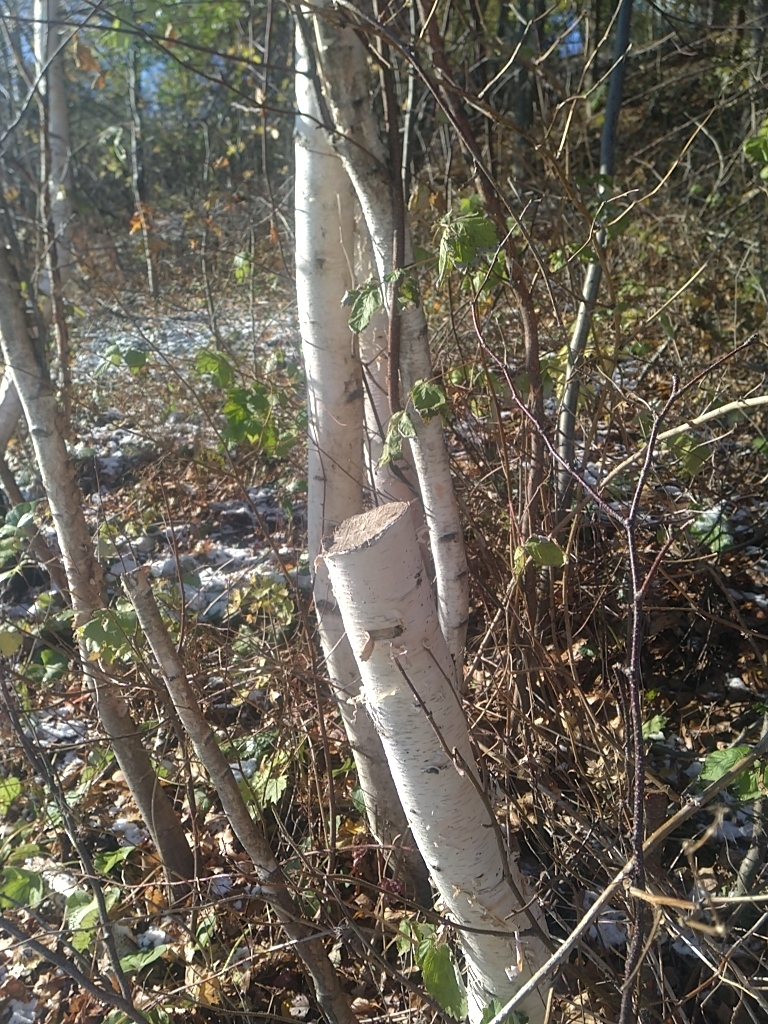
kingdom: Plantae
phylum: Tracheophyta
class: Magnoliopsida
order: Fagales
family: Betulaceae
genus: Betula
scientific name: Betula papyrifera
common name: Paper birch
